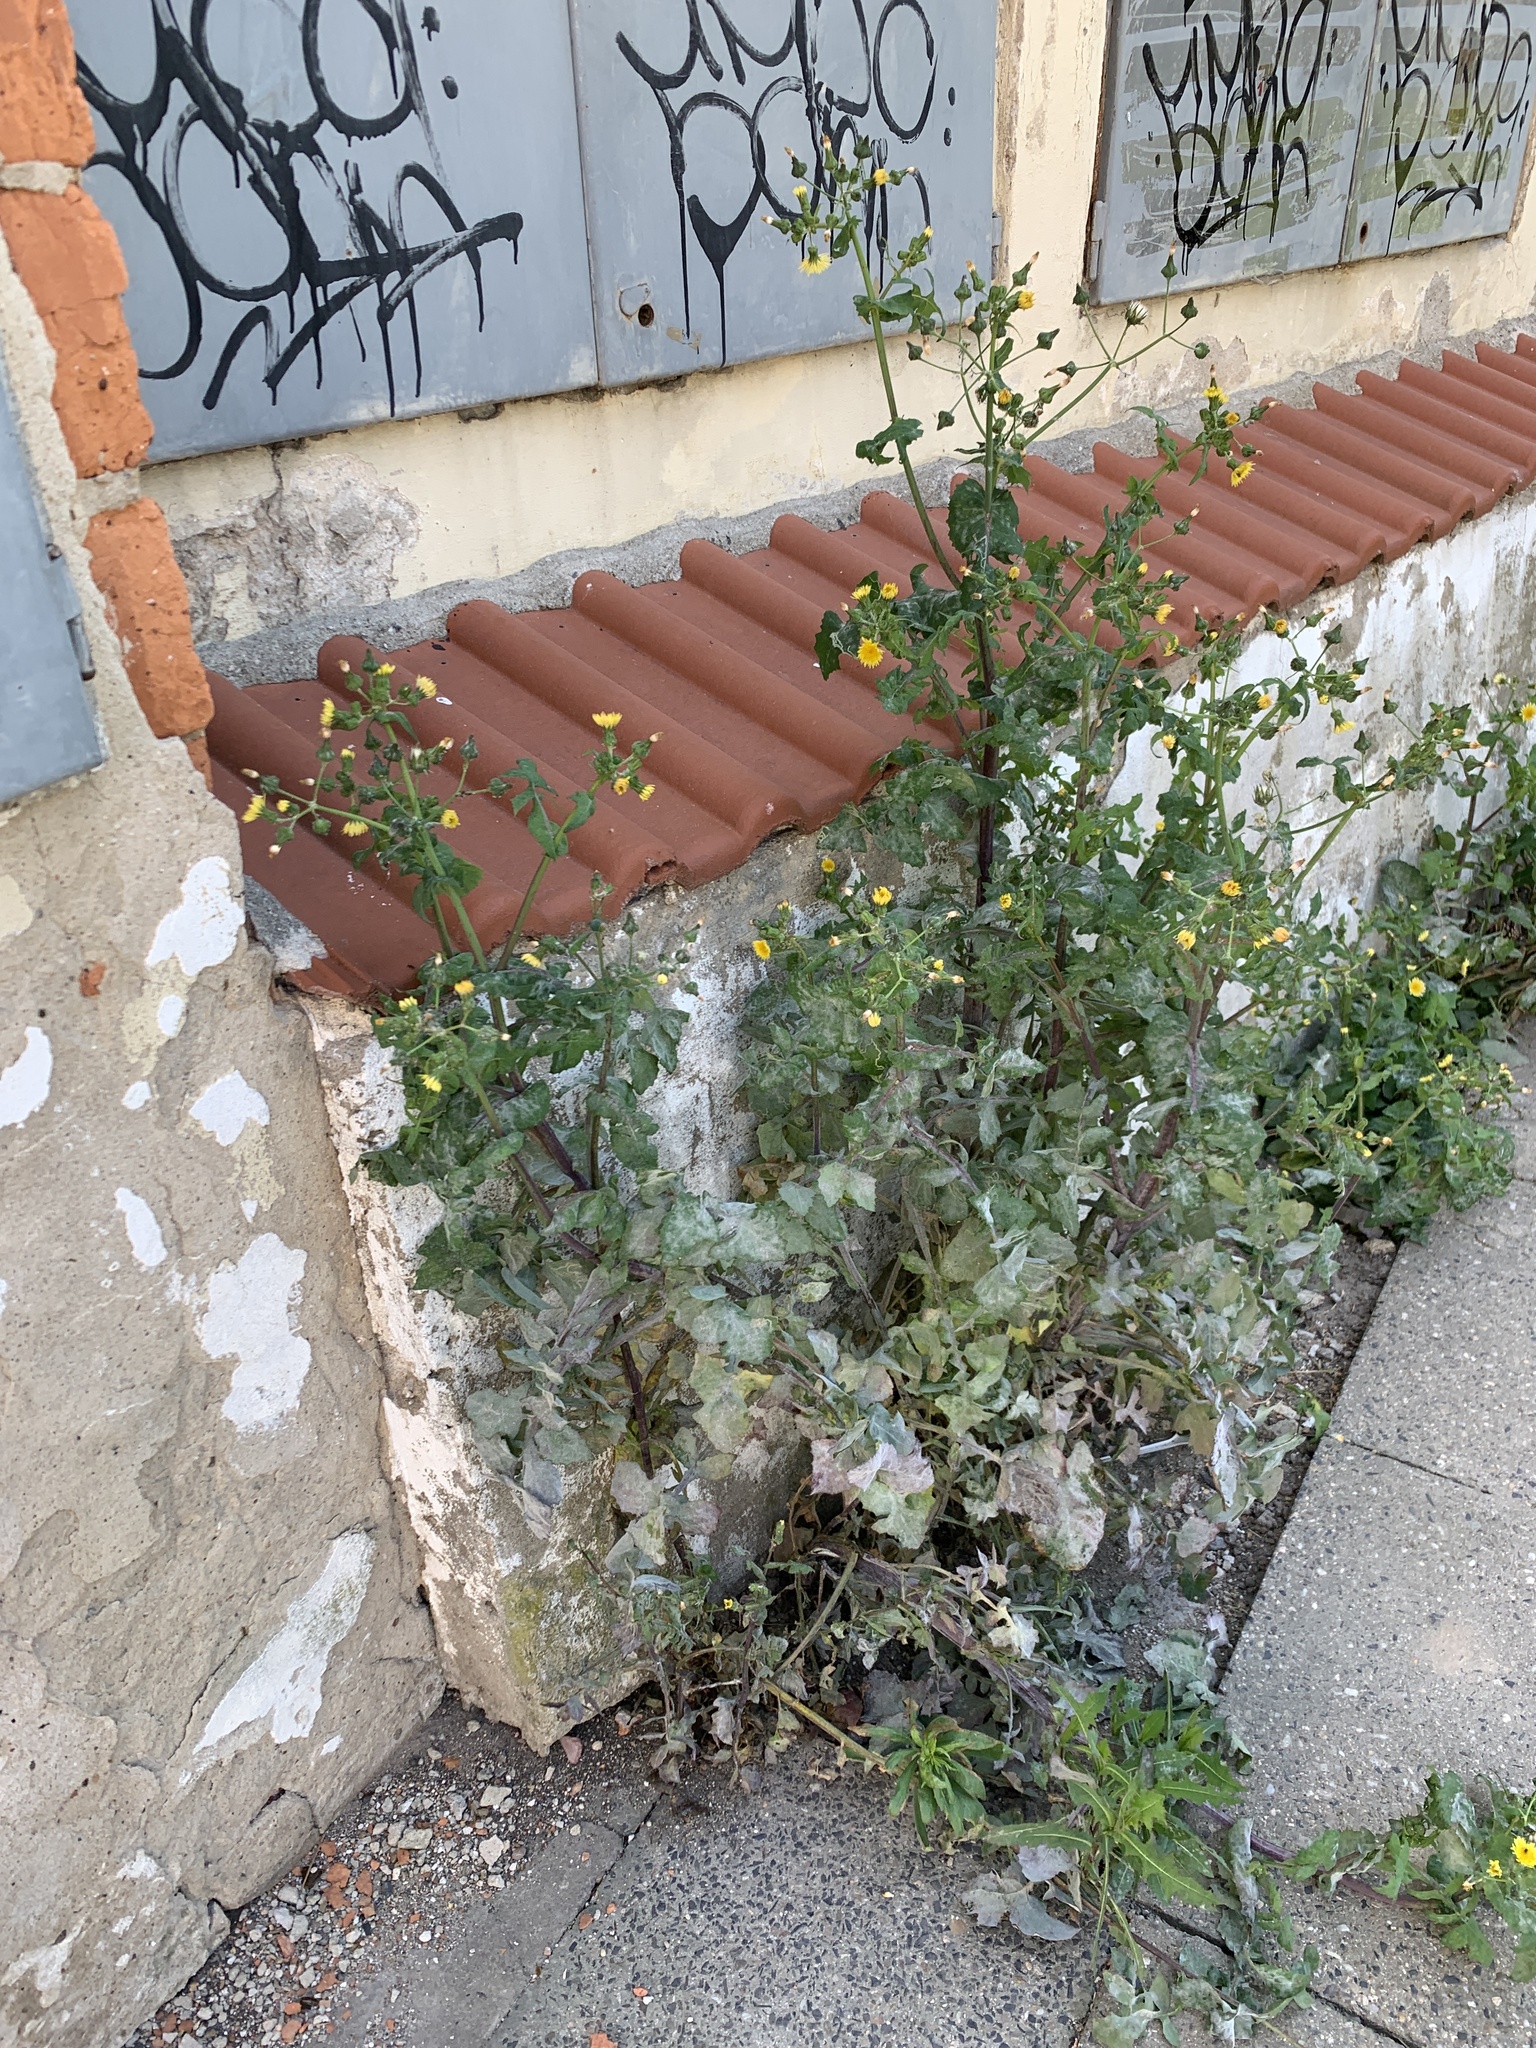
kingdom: Plantae
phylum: Tracheophyta
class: Magnoliopsida
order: Asterales
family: Asteraceae
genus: Sonchus
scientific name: Sonchus oleraceus
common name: Common sowthistle
